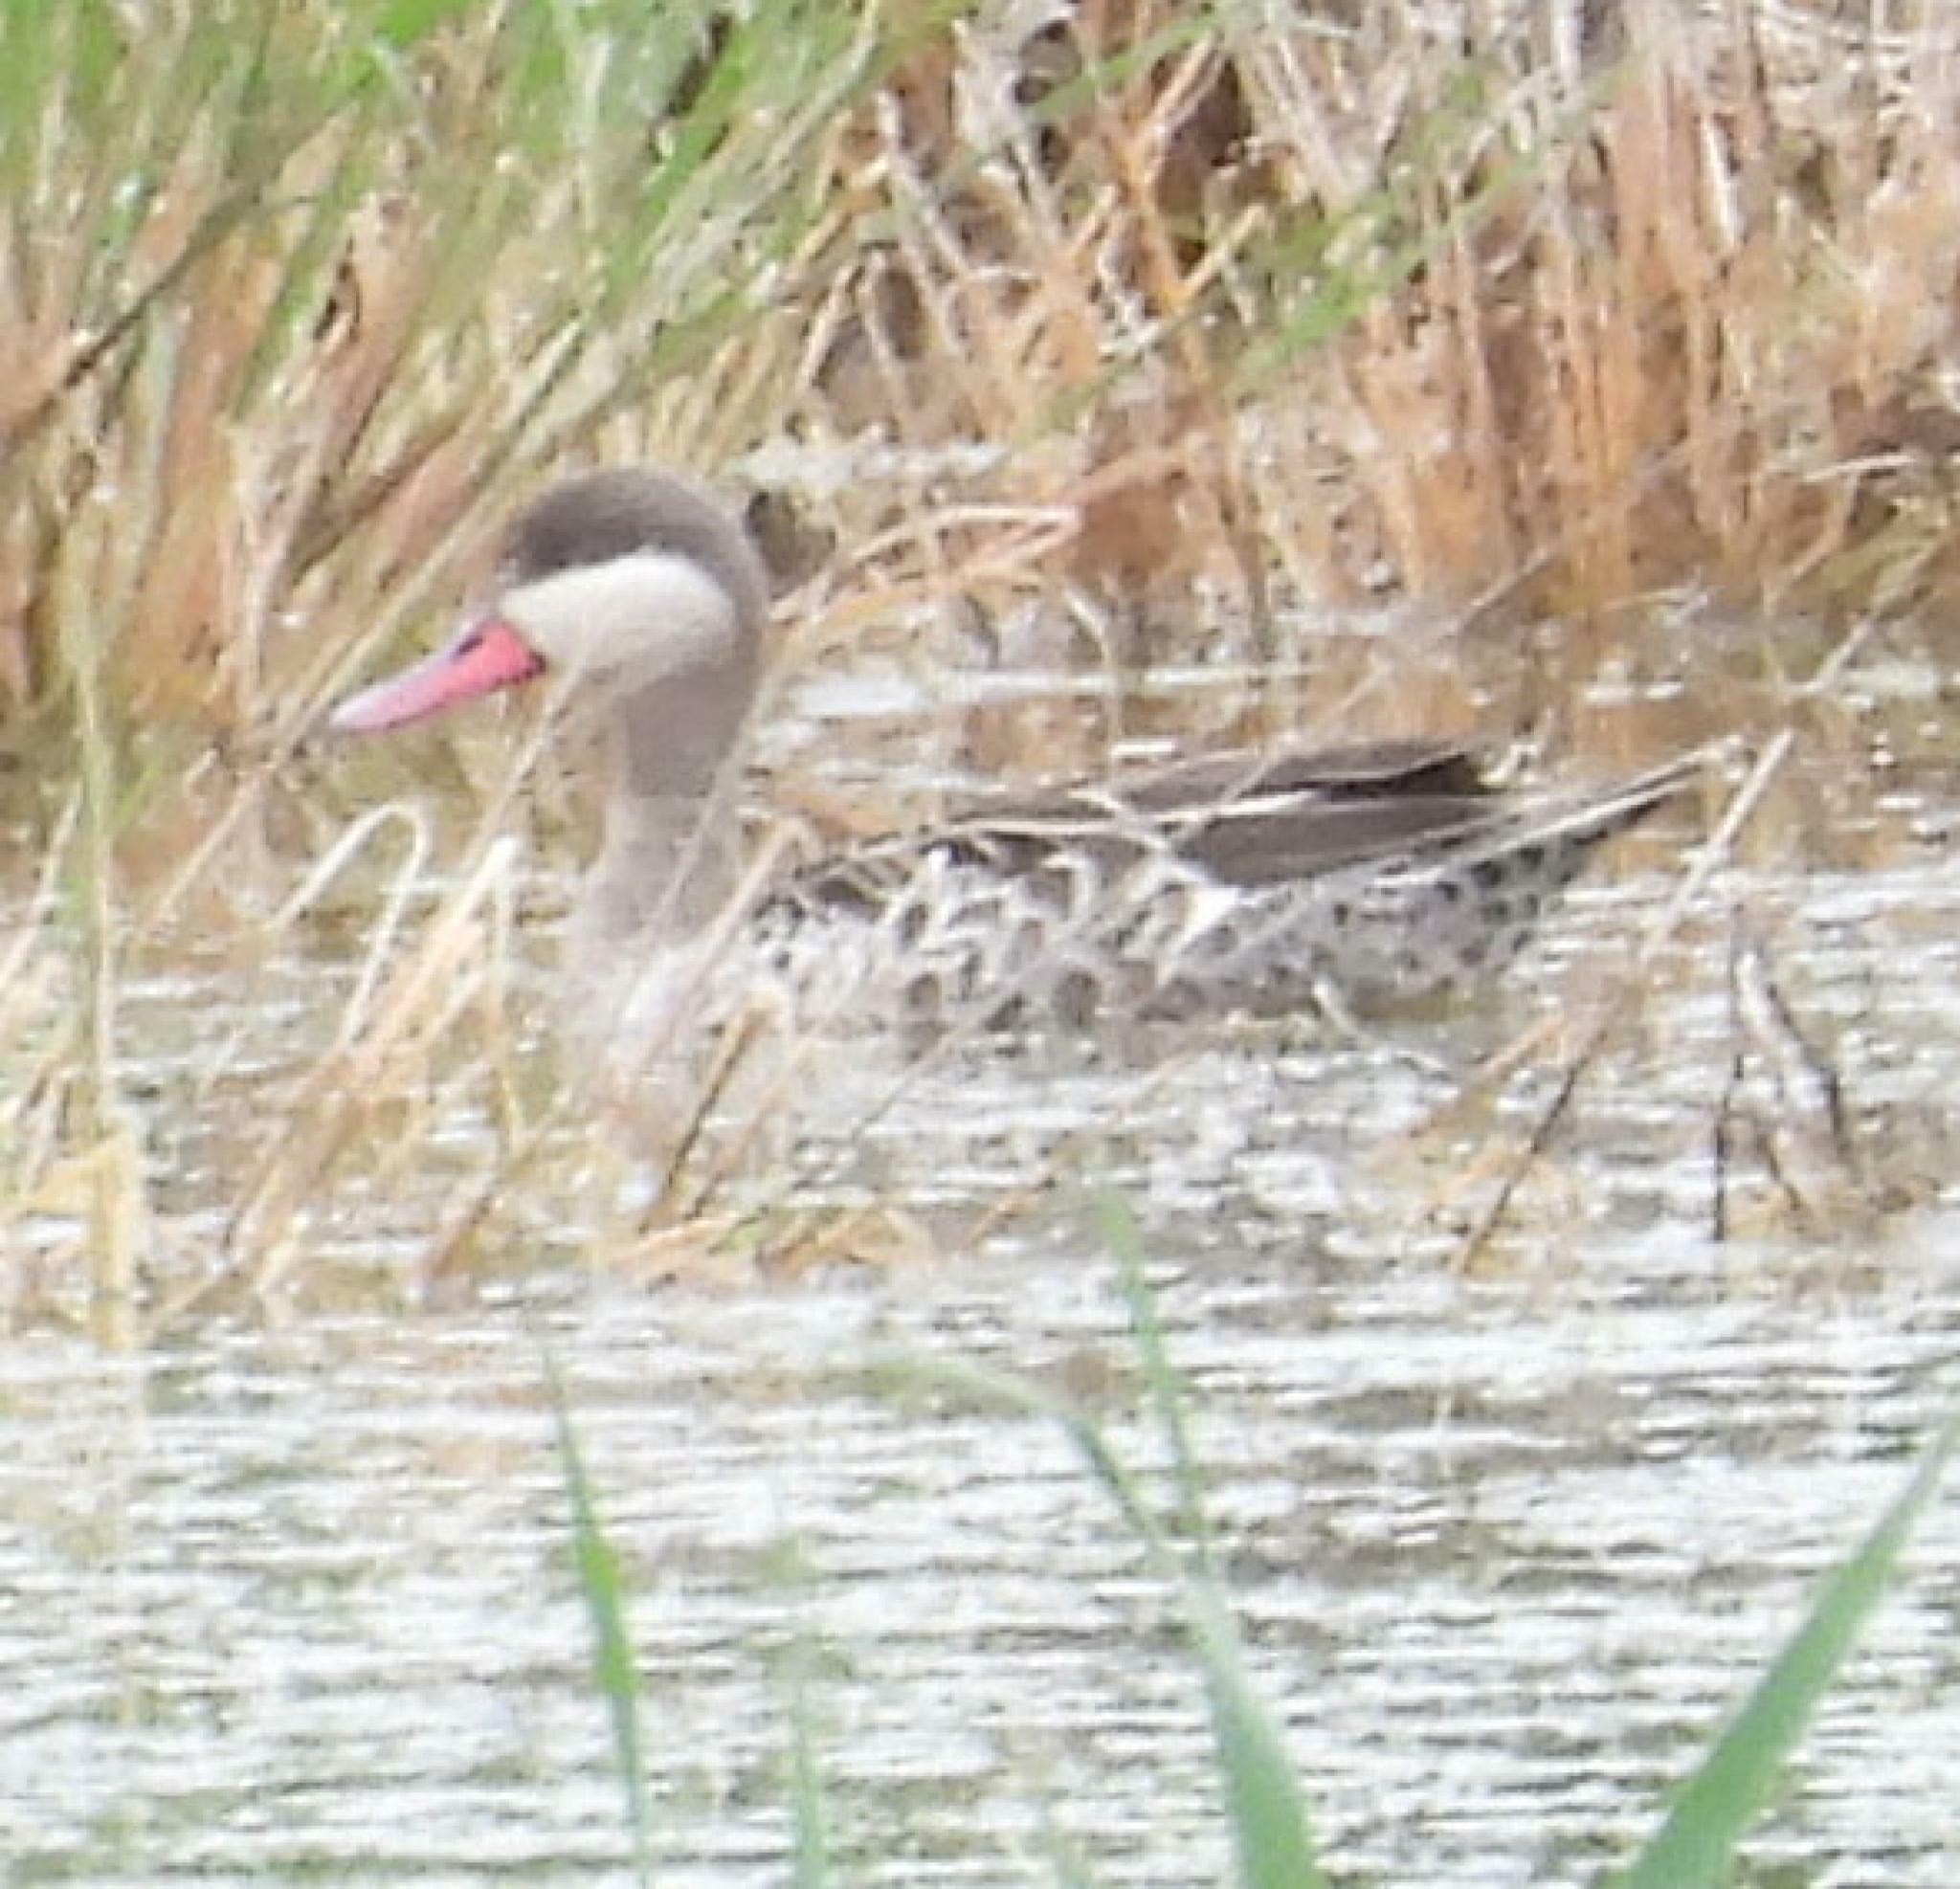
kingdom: Animalia
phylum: Chordata
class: Aves
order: Anseriformes
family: Anatidae
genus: Anas
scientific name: Anas erythrorhyncha
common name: Red-billed teal
